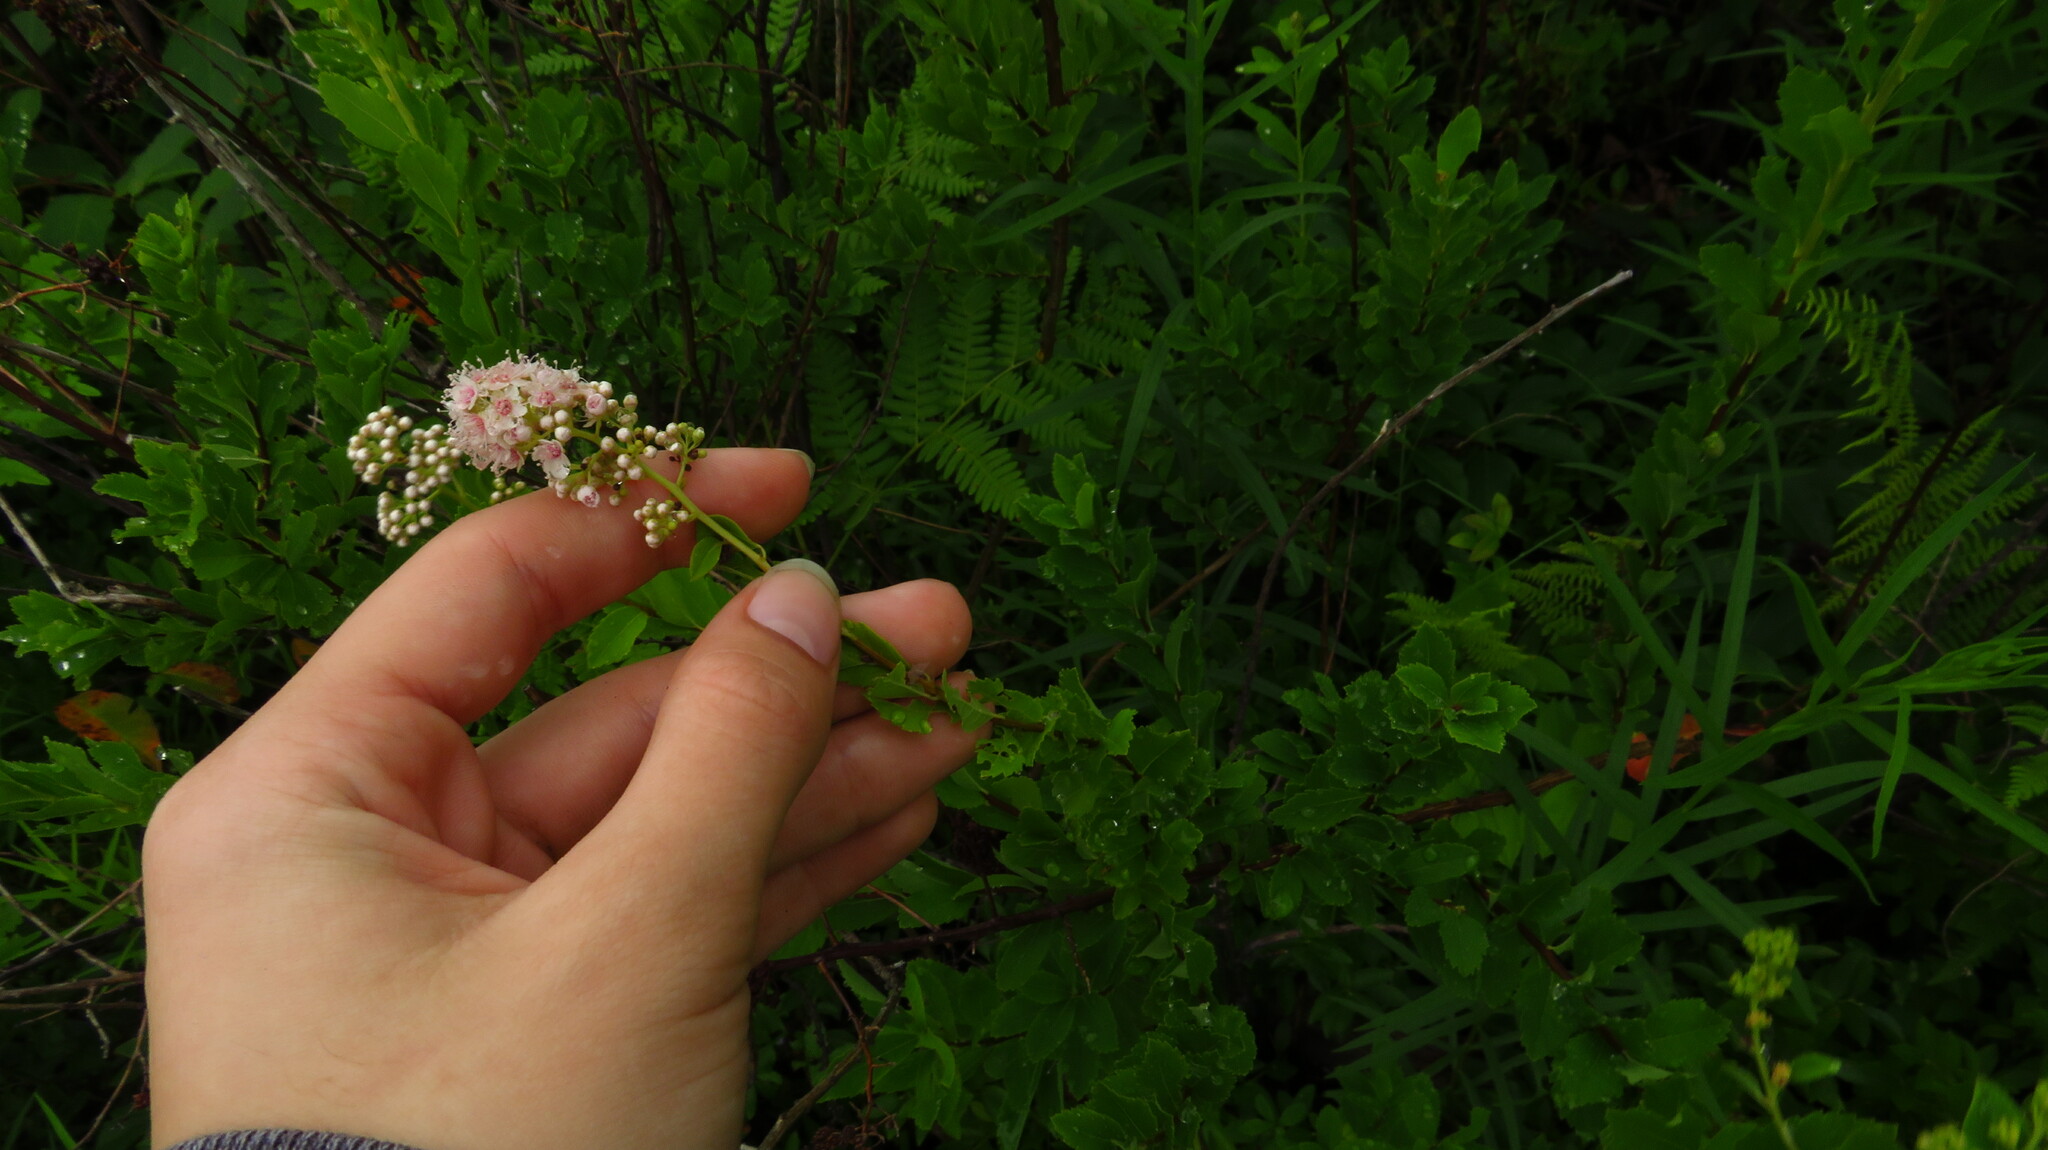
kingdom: Plantae
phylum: Tracheophyta
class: Magnoliopsida
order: Rosales
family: Rosaceae
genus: Spiraea
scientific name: Spiraea alba
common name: Pale bridewort
